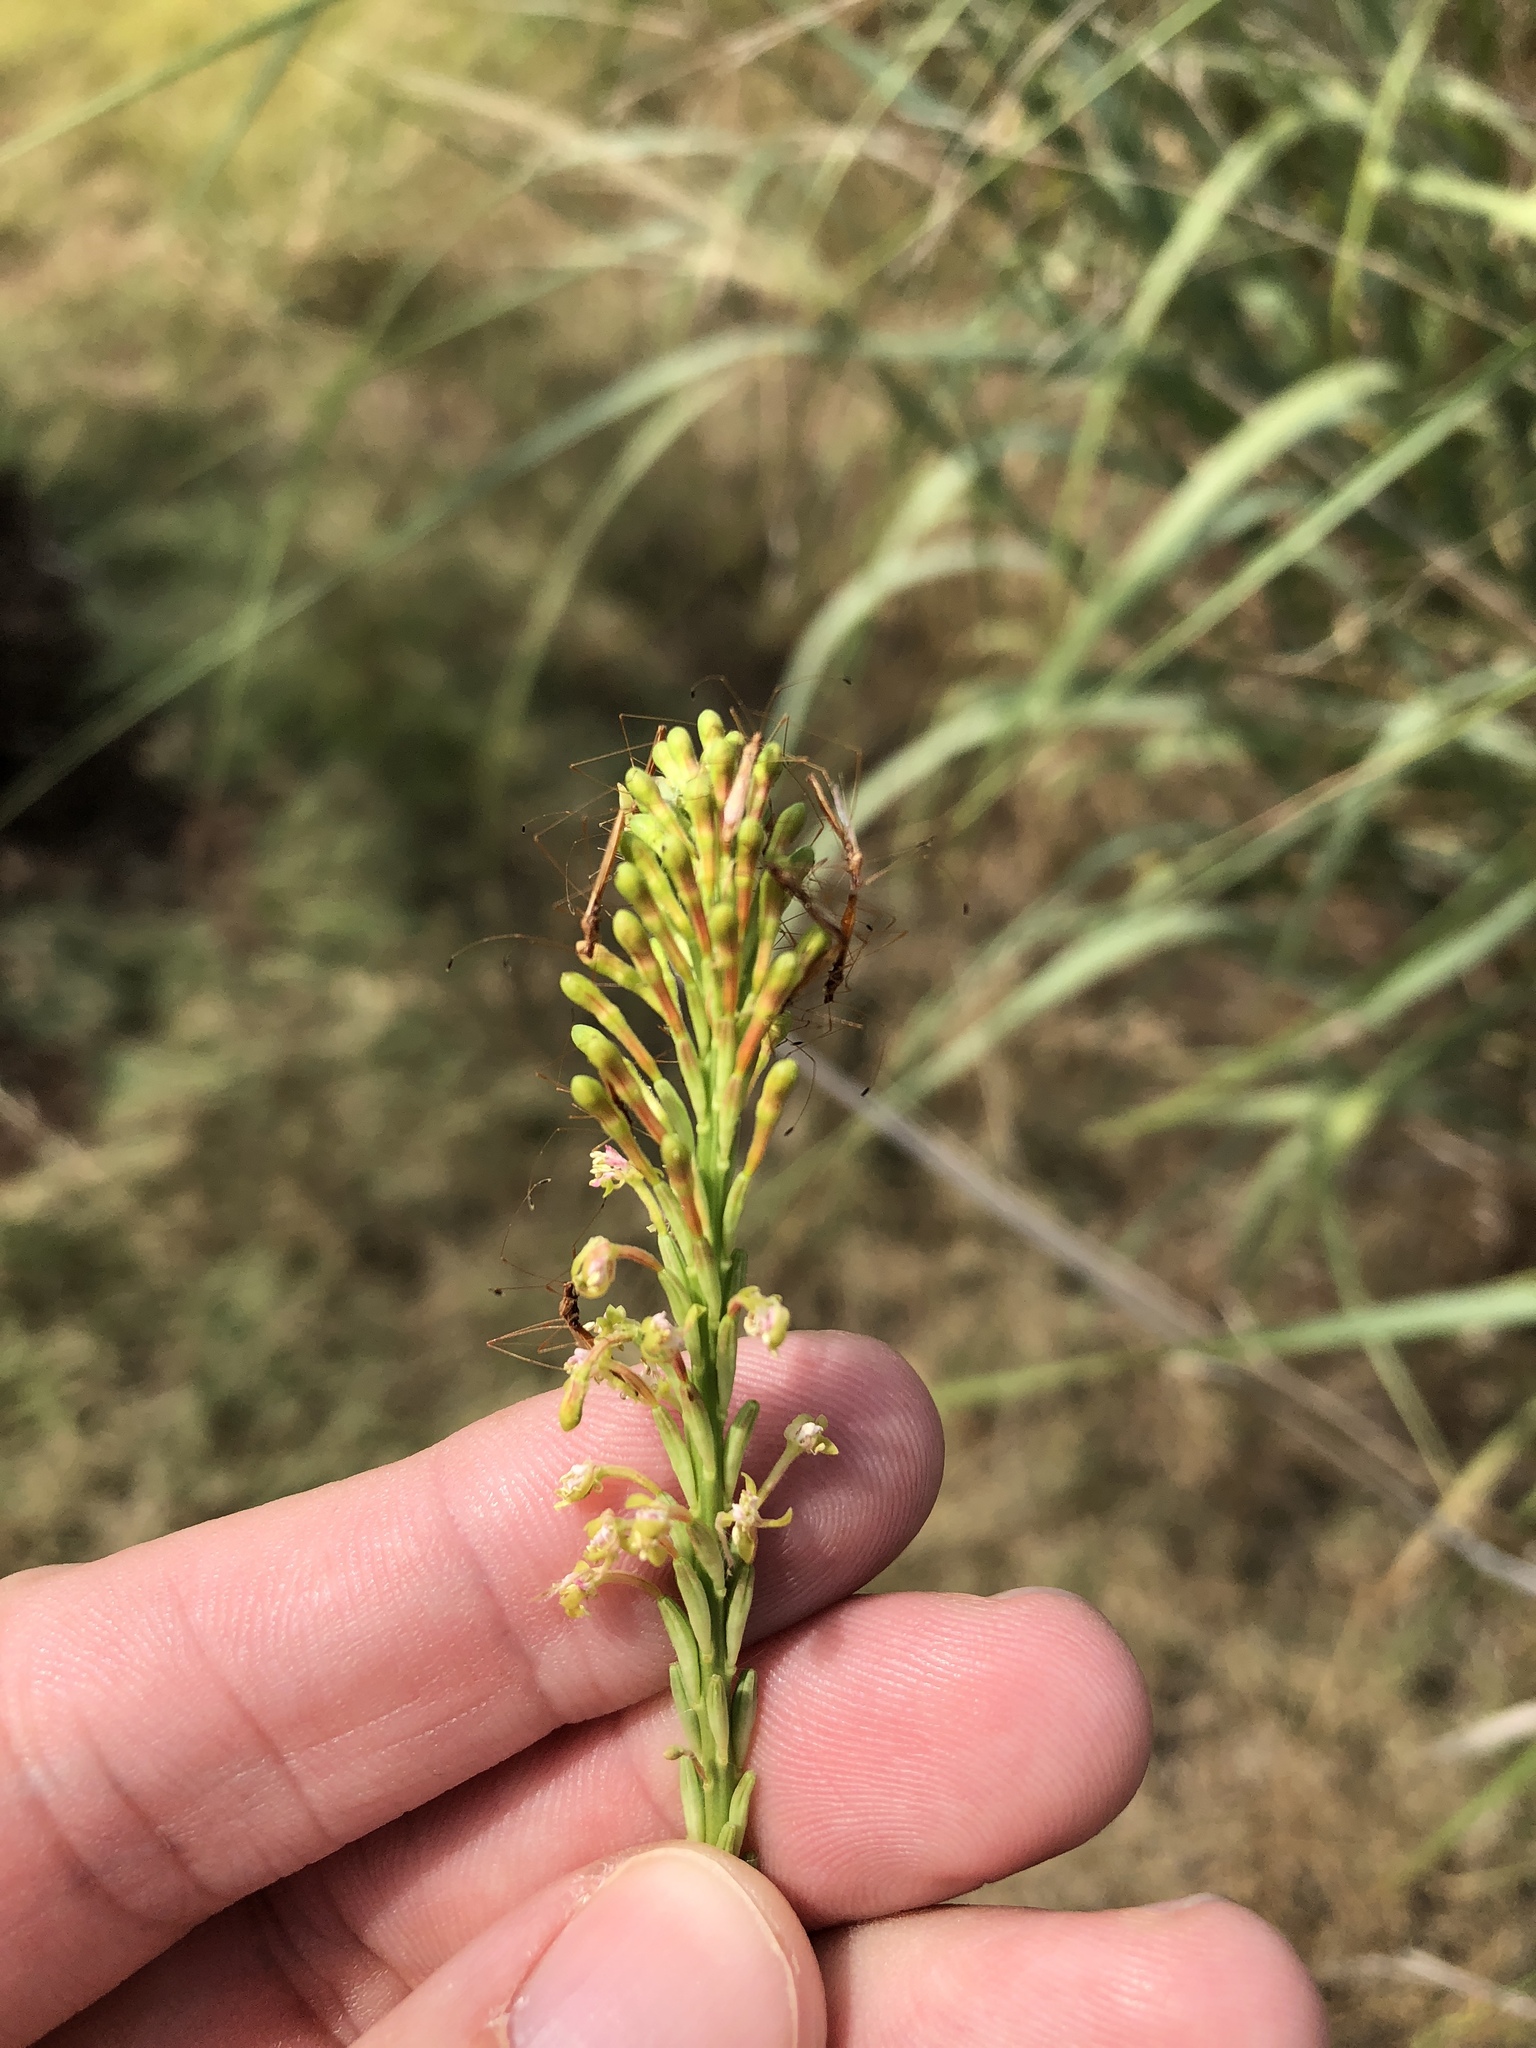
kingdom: Plantae
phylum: Tracheophyta
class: Magnoliopsida
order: Myrtales
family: Onagraceae
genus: Oenothera
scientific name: Oenothera curtiflora
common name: Velvetweed
